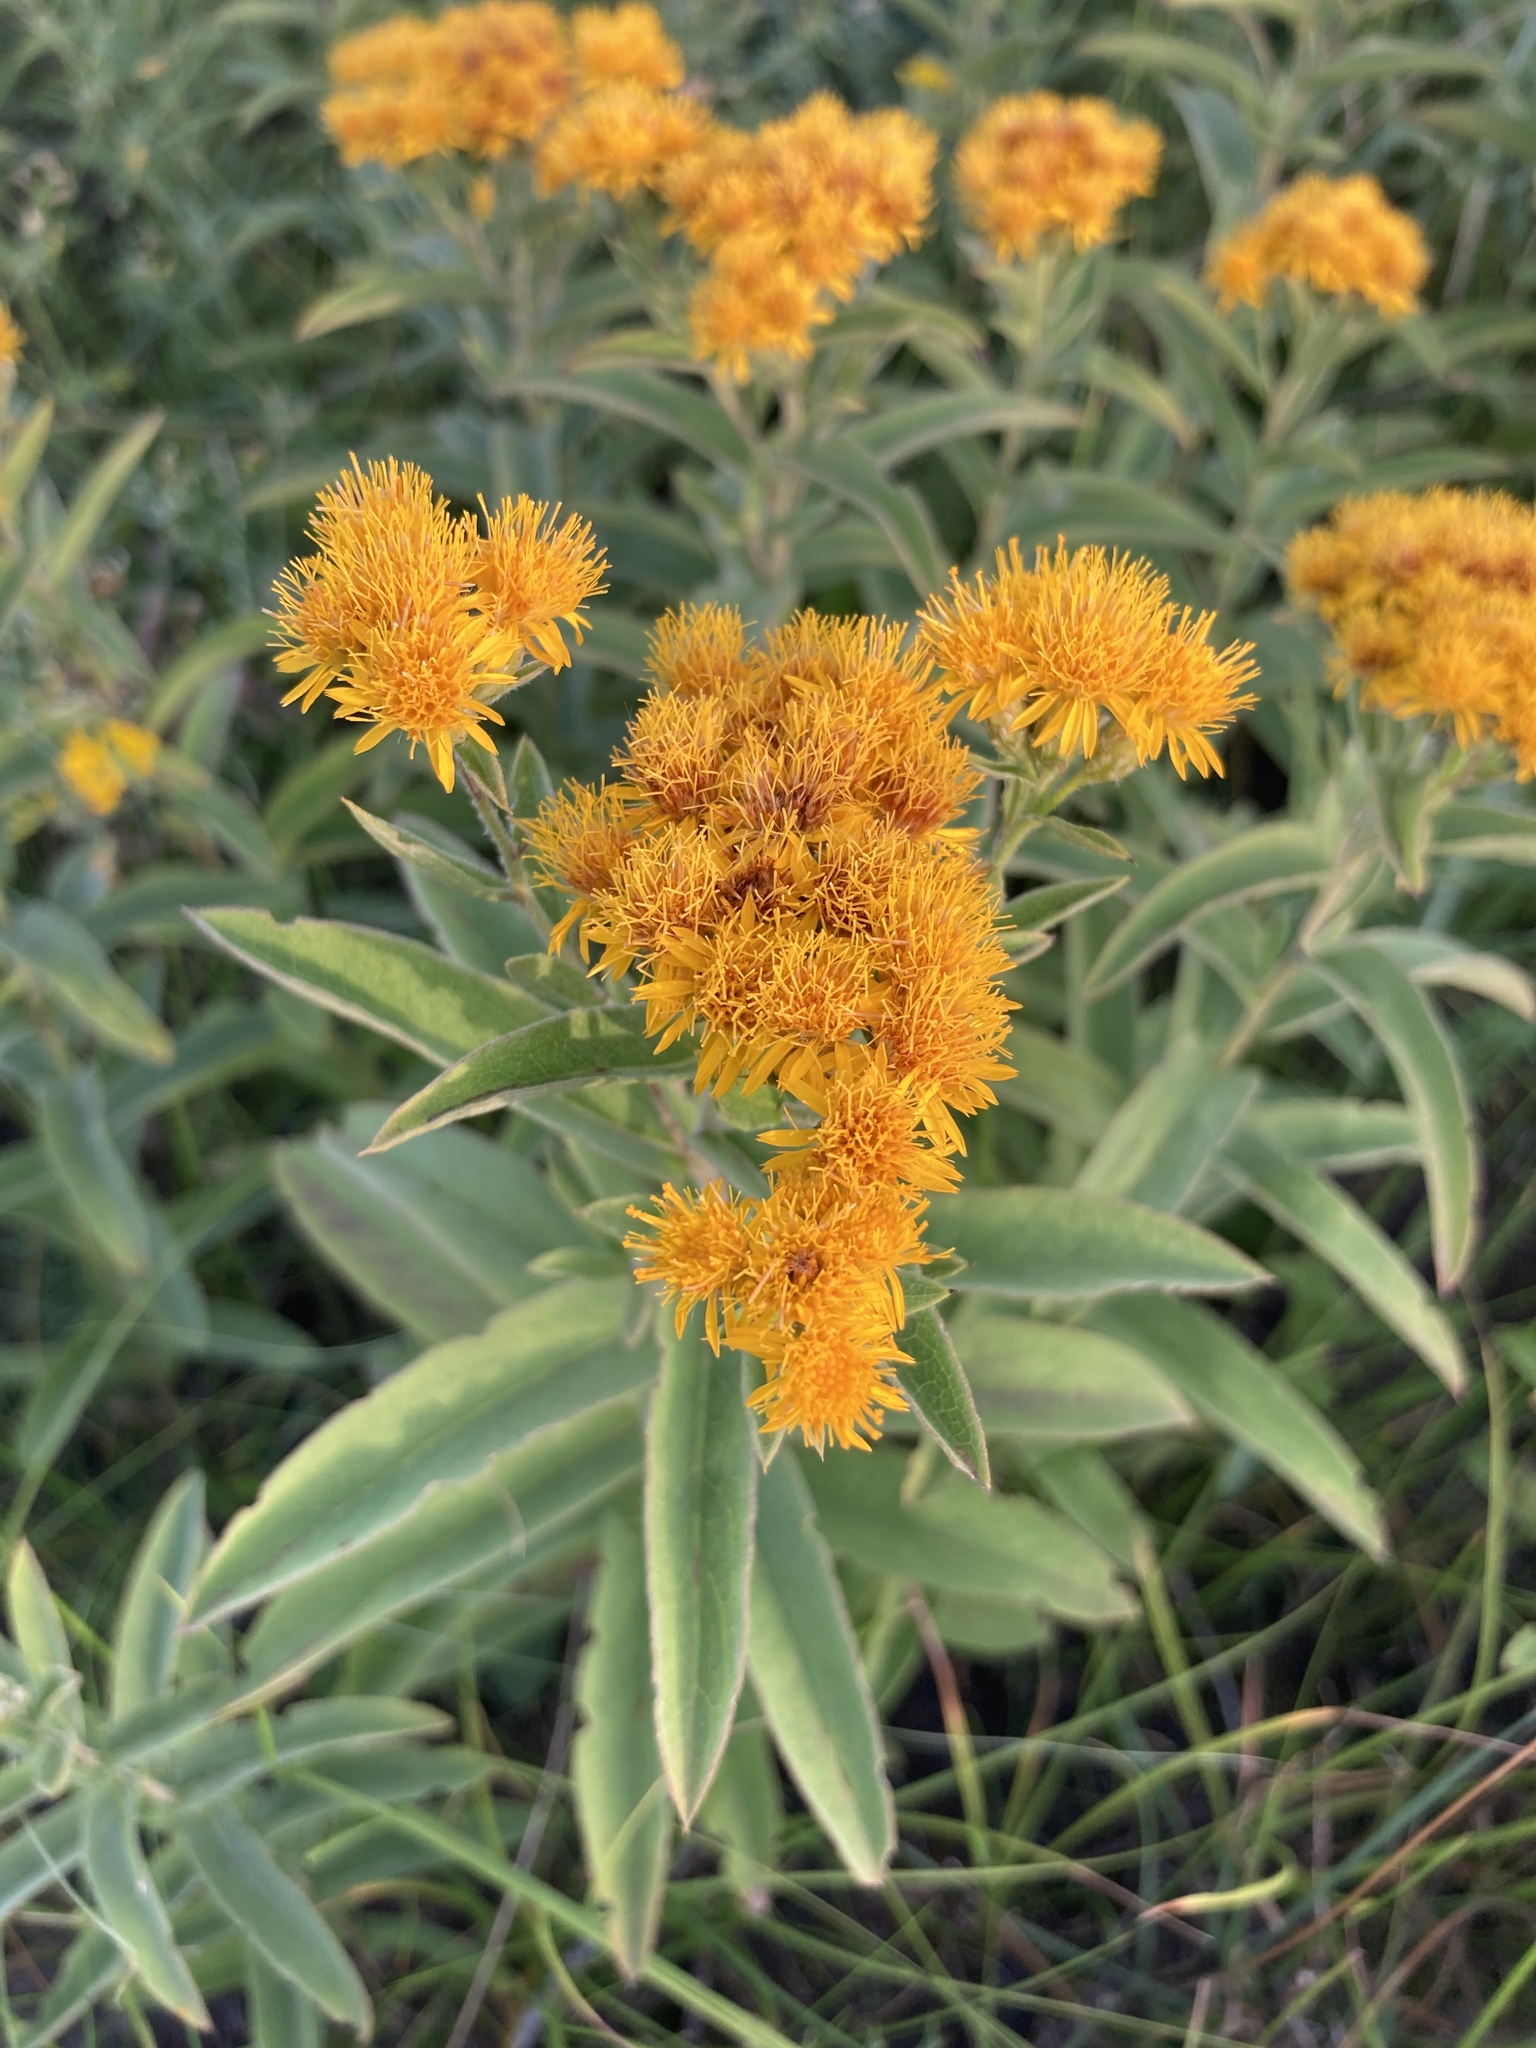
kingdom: Plantae
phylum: Tracheophyta
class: Magnoliopsida
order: Asterales
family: Asteraceae
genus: Pentanema
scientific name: Pentanema germanicum
